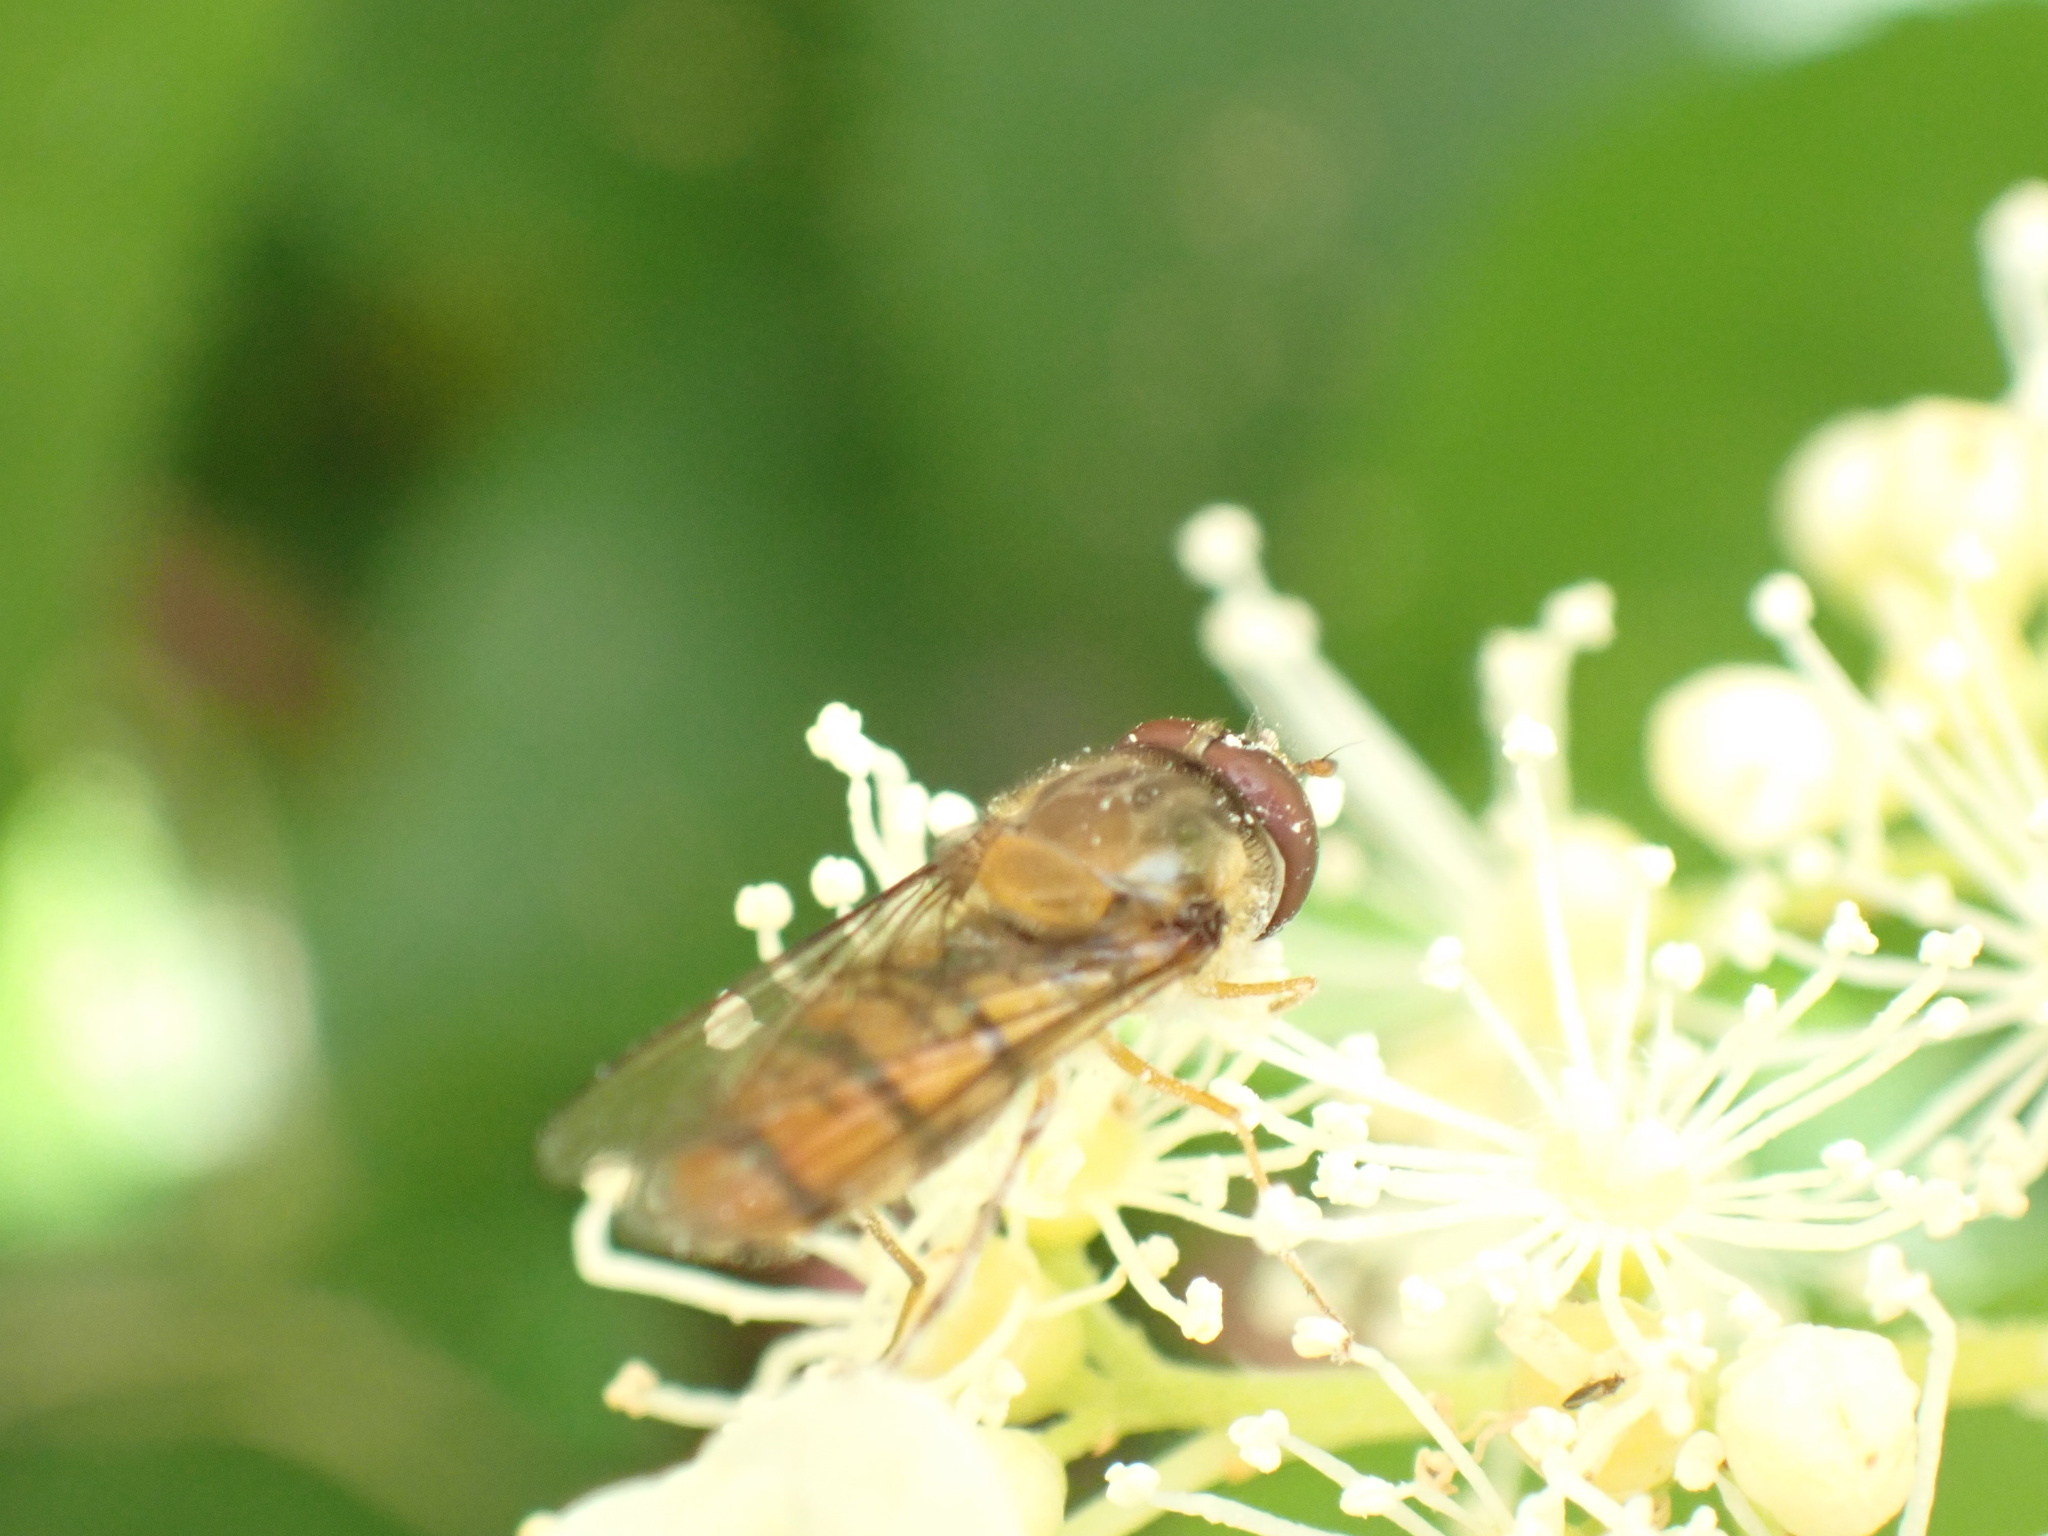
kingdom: Animalia
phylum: Arthropoda
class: Insecta
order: Diptera
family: Syrphidae
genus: Episyrphus
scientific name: Episyrphus balteatus
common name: Marmalade hoverfly
